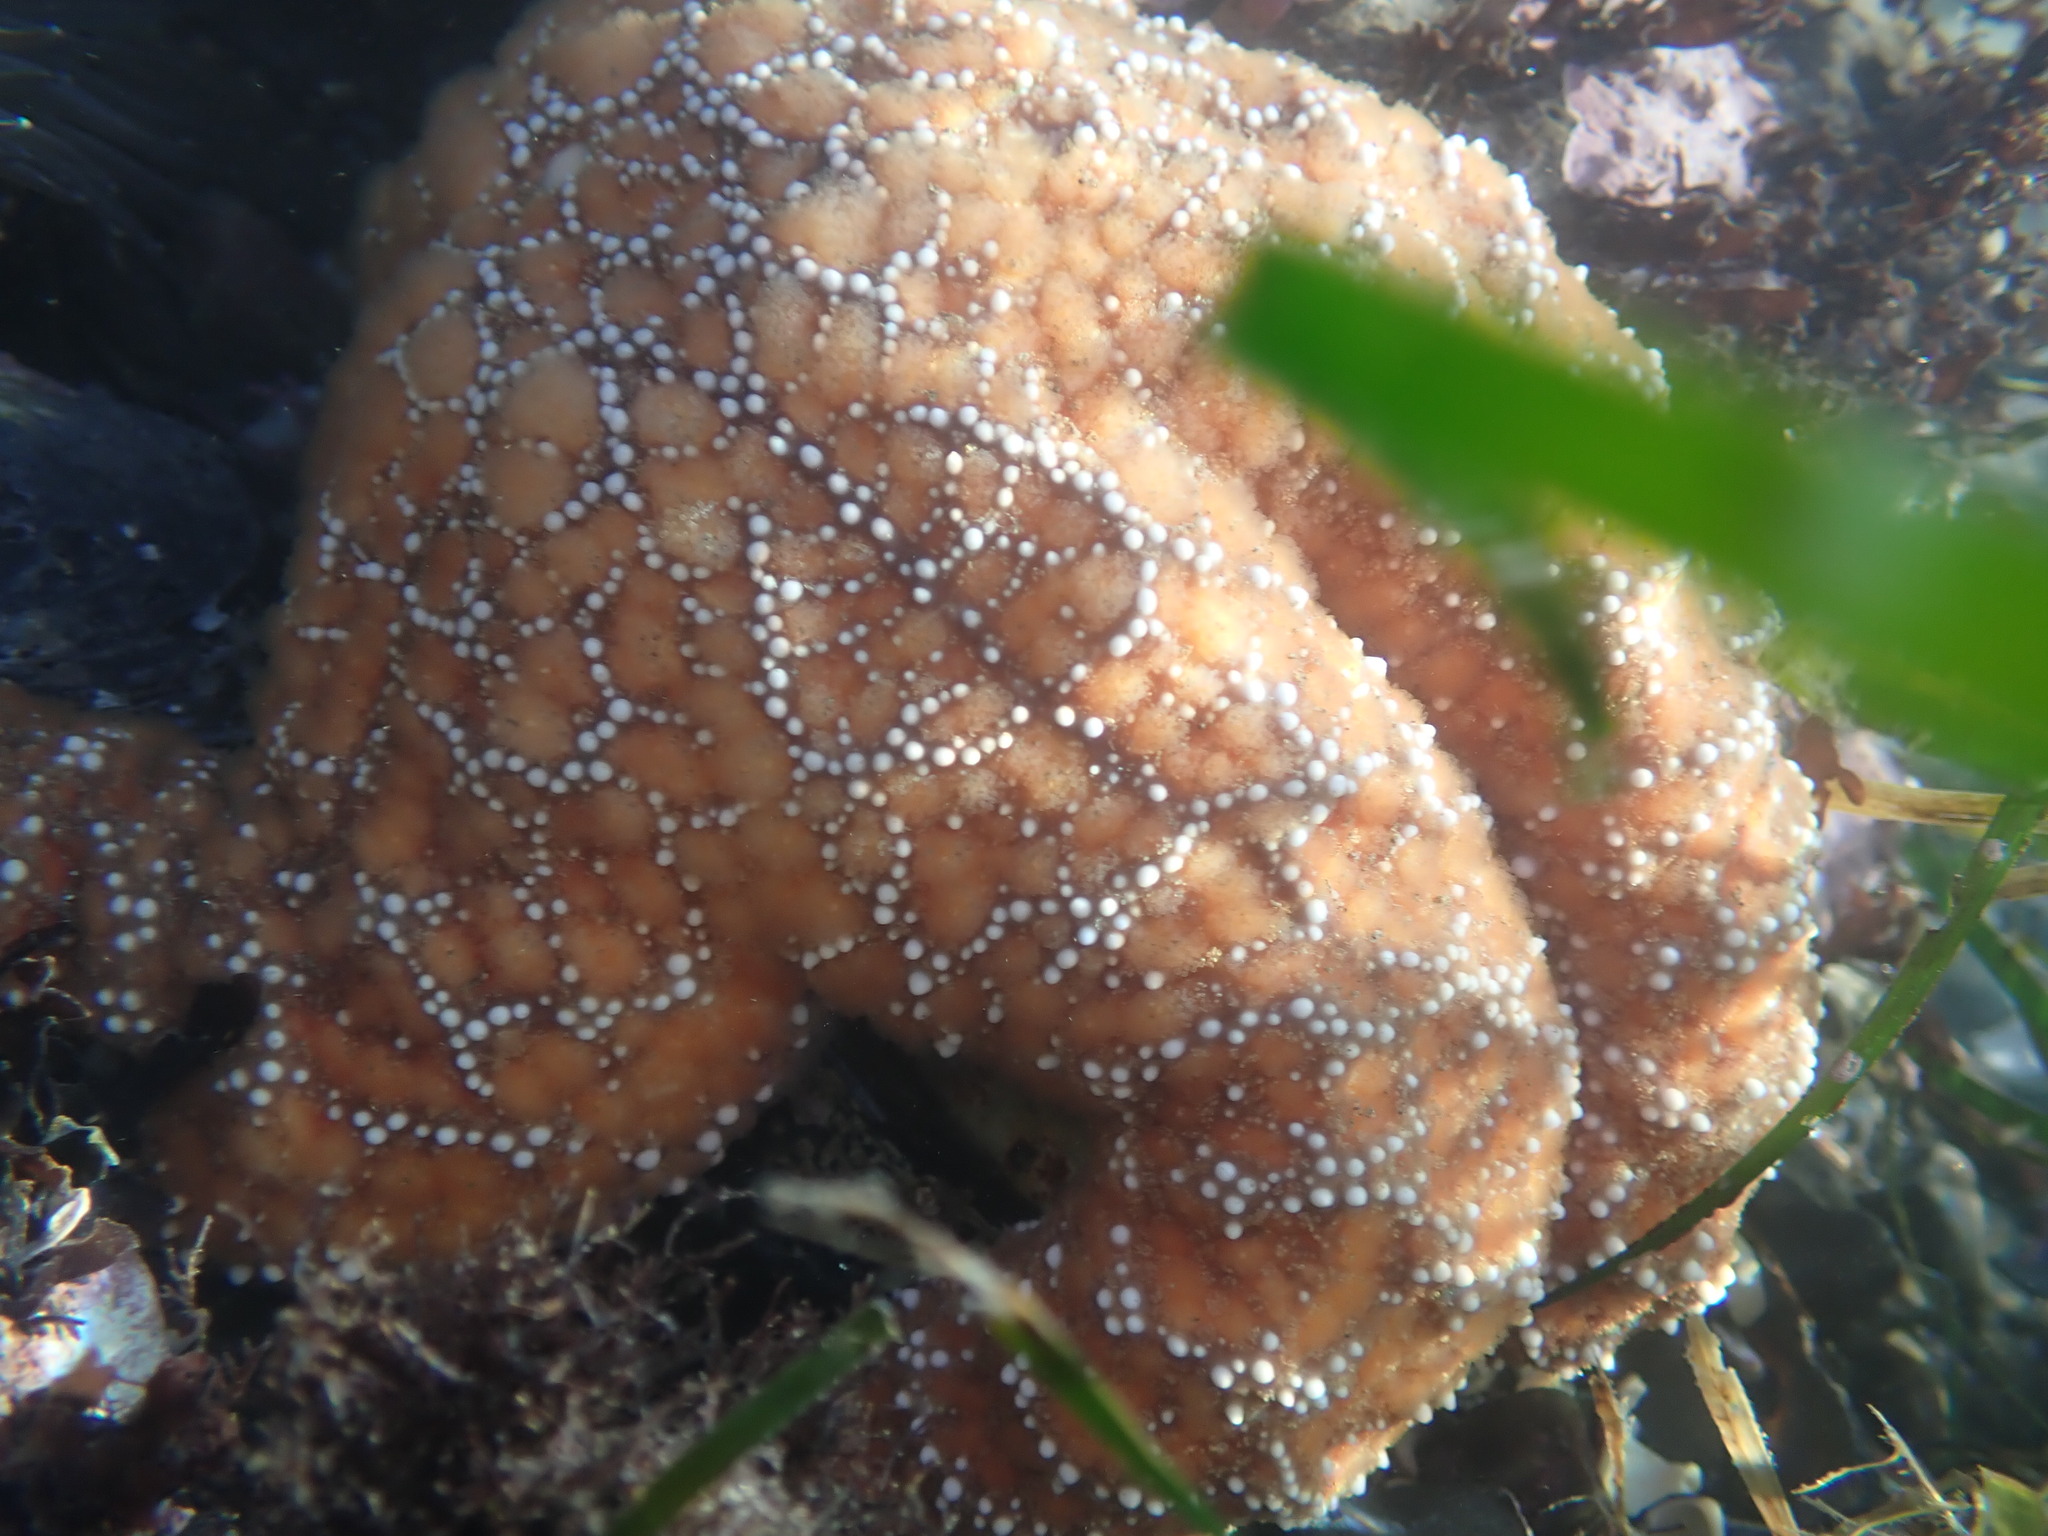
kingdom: Animalia
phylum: Echinodermata
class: Asteroidea
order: Forcipulatida
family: Asteriidae
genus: Pisaster
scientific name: Pisaster ochraceus
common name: Ochre stars
